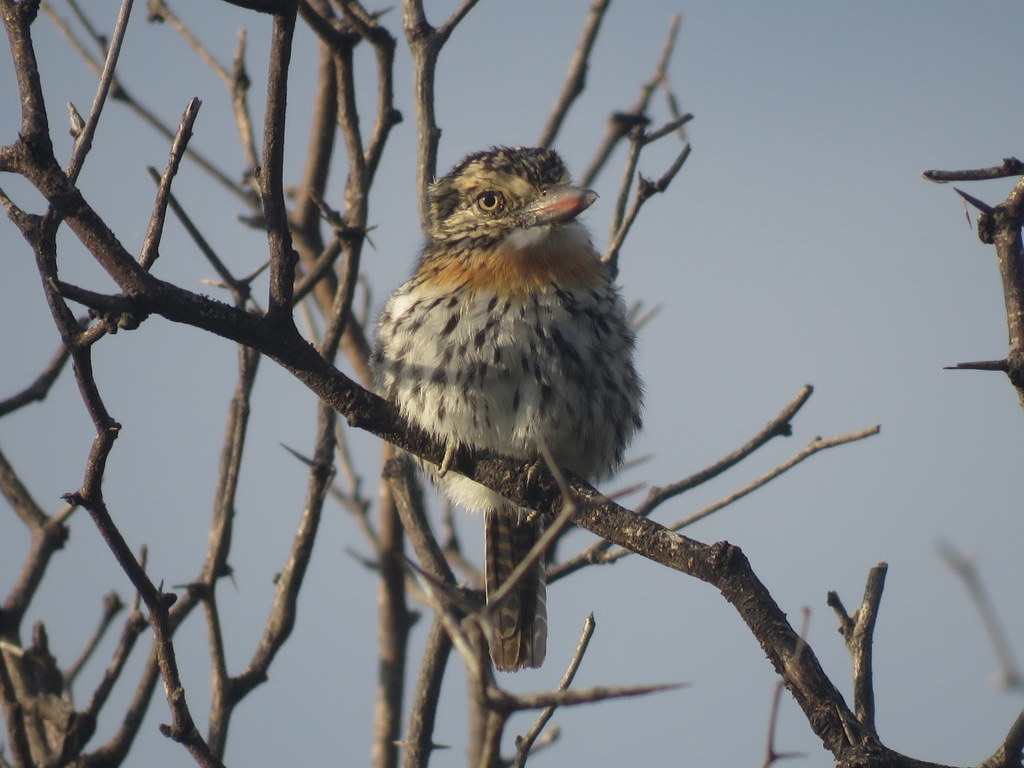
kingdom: Animalia
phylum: Chordata
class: Aves
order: Piciformes
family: Bucconidae
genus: Nystalus
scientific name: Nystalus maculatus
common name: Caatinga puffbird
